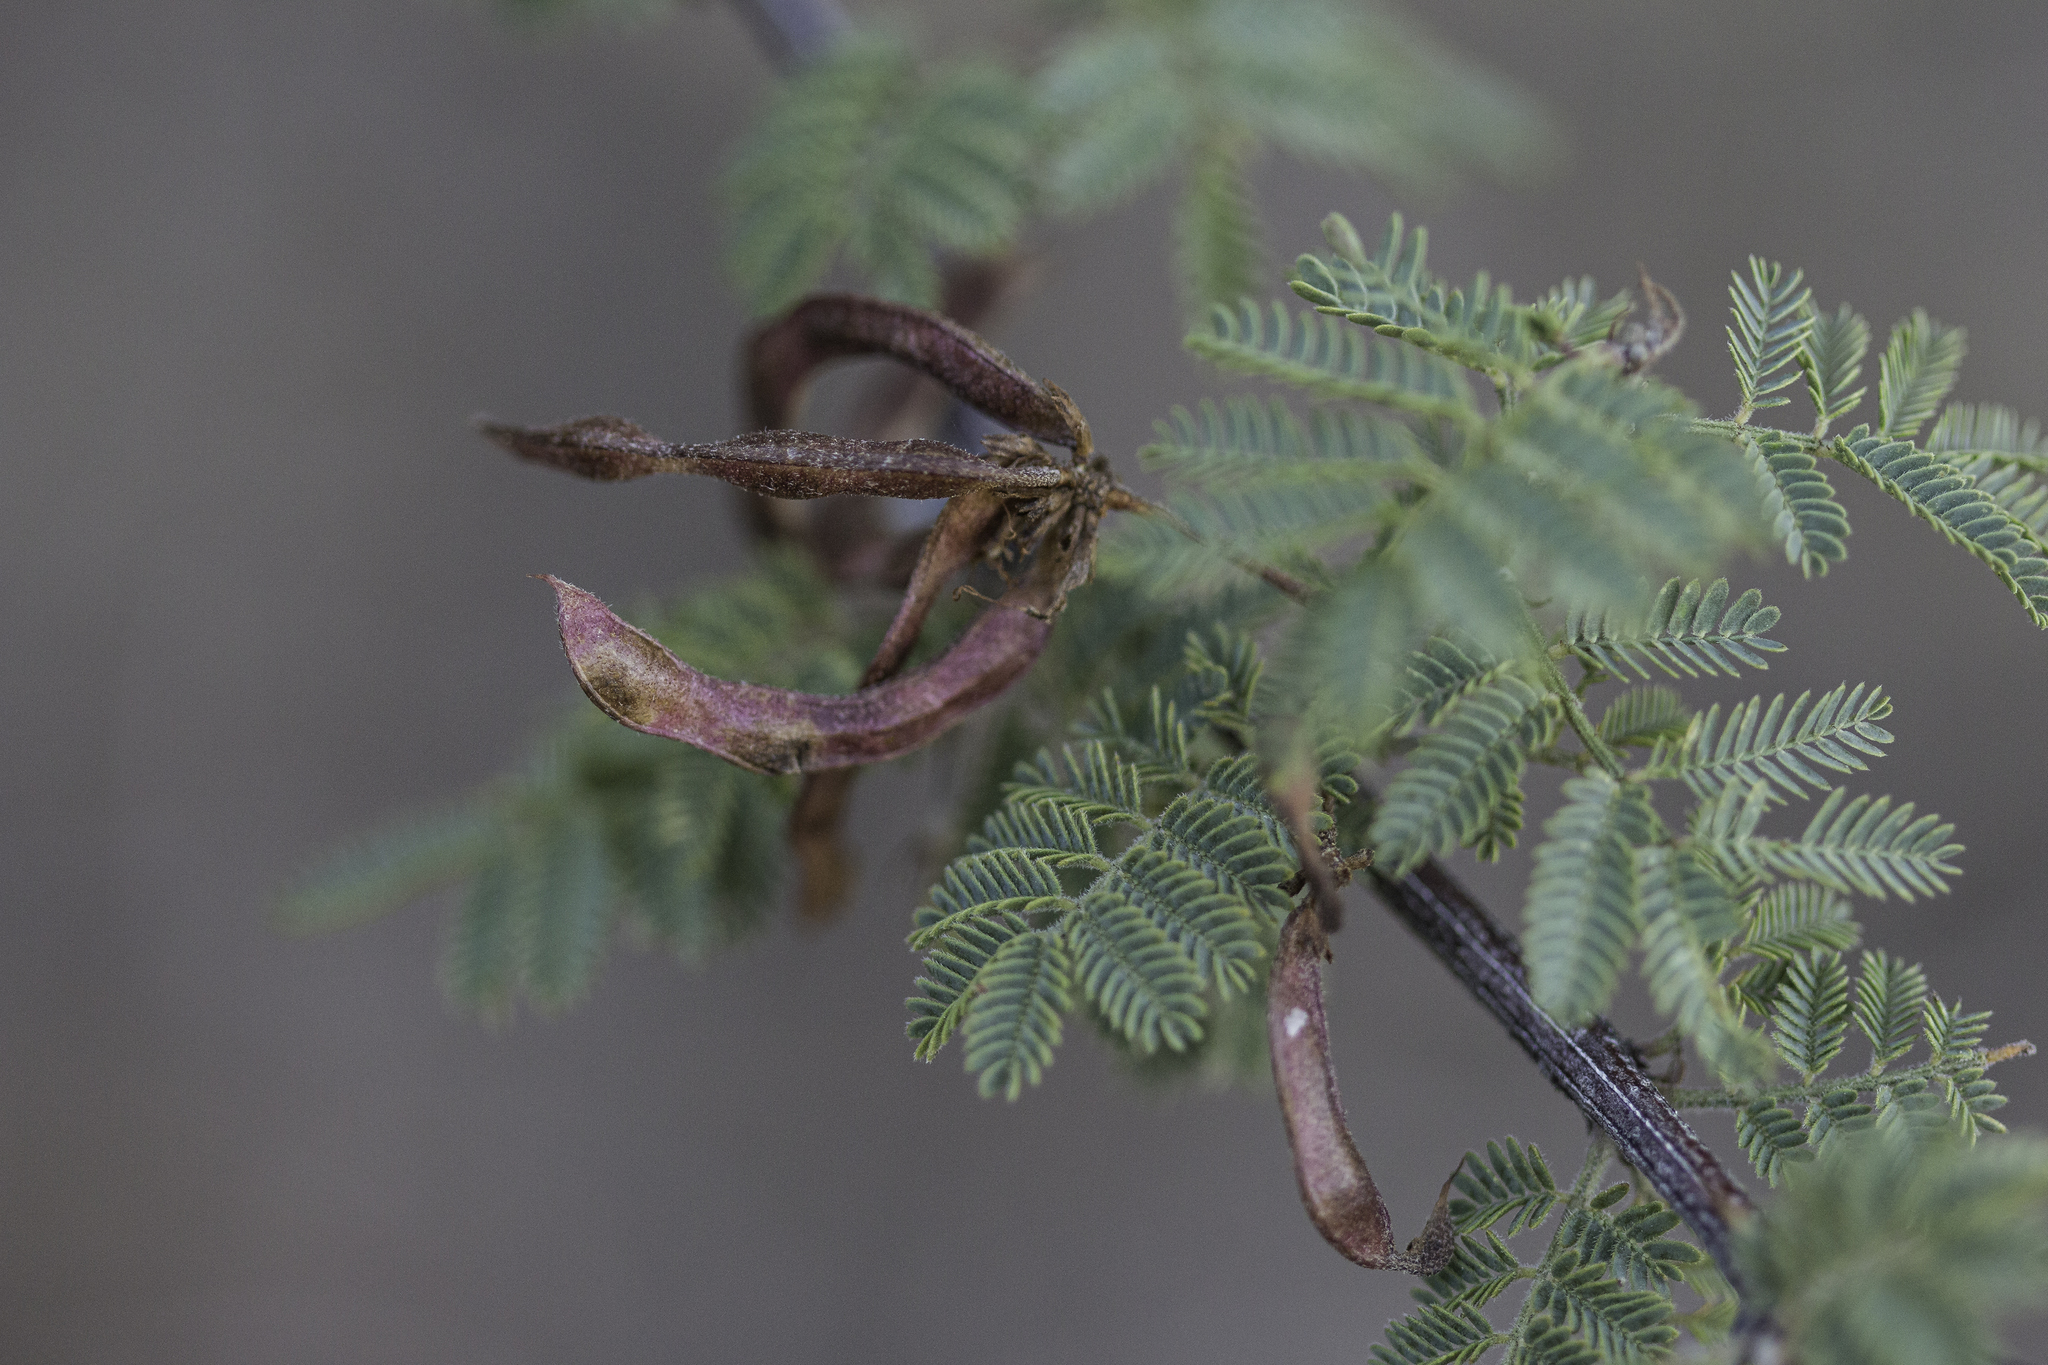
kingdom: Plantae
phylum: Tracheophyta
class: Magnoliopsida
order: Fabales
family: Fabaceae
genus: Mimosa
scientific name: Mimosa aculeaticarpa
